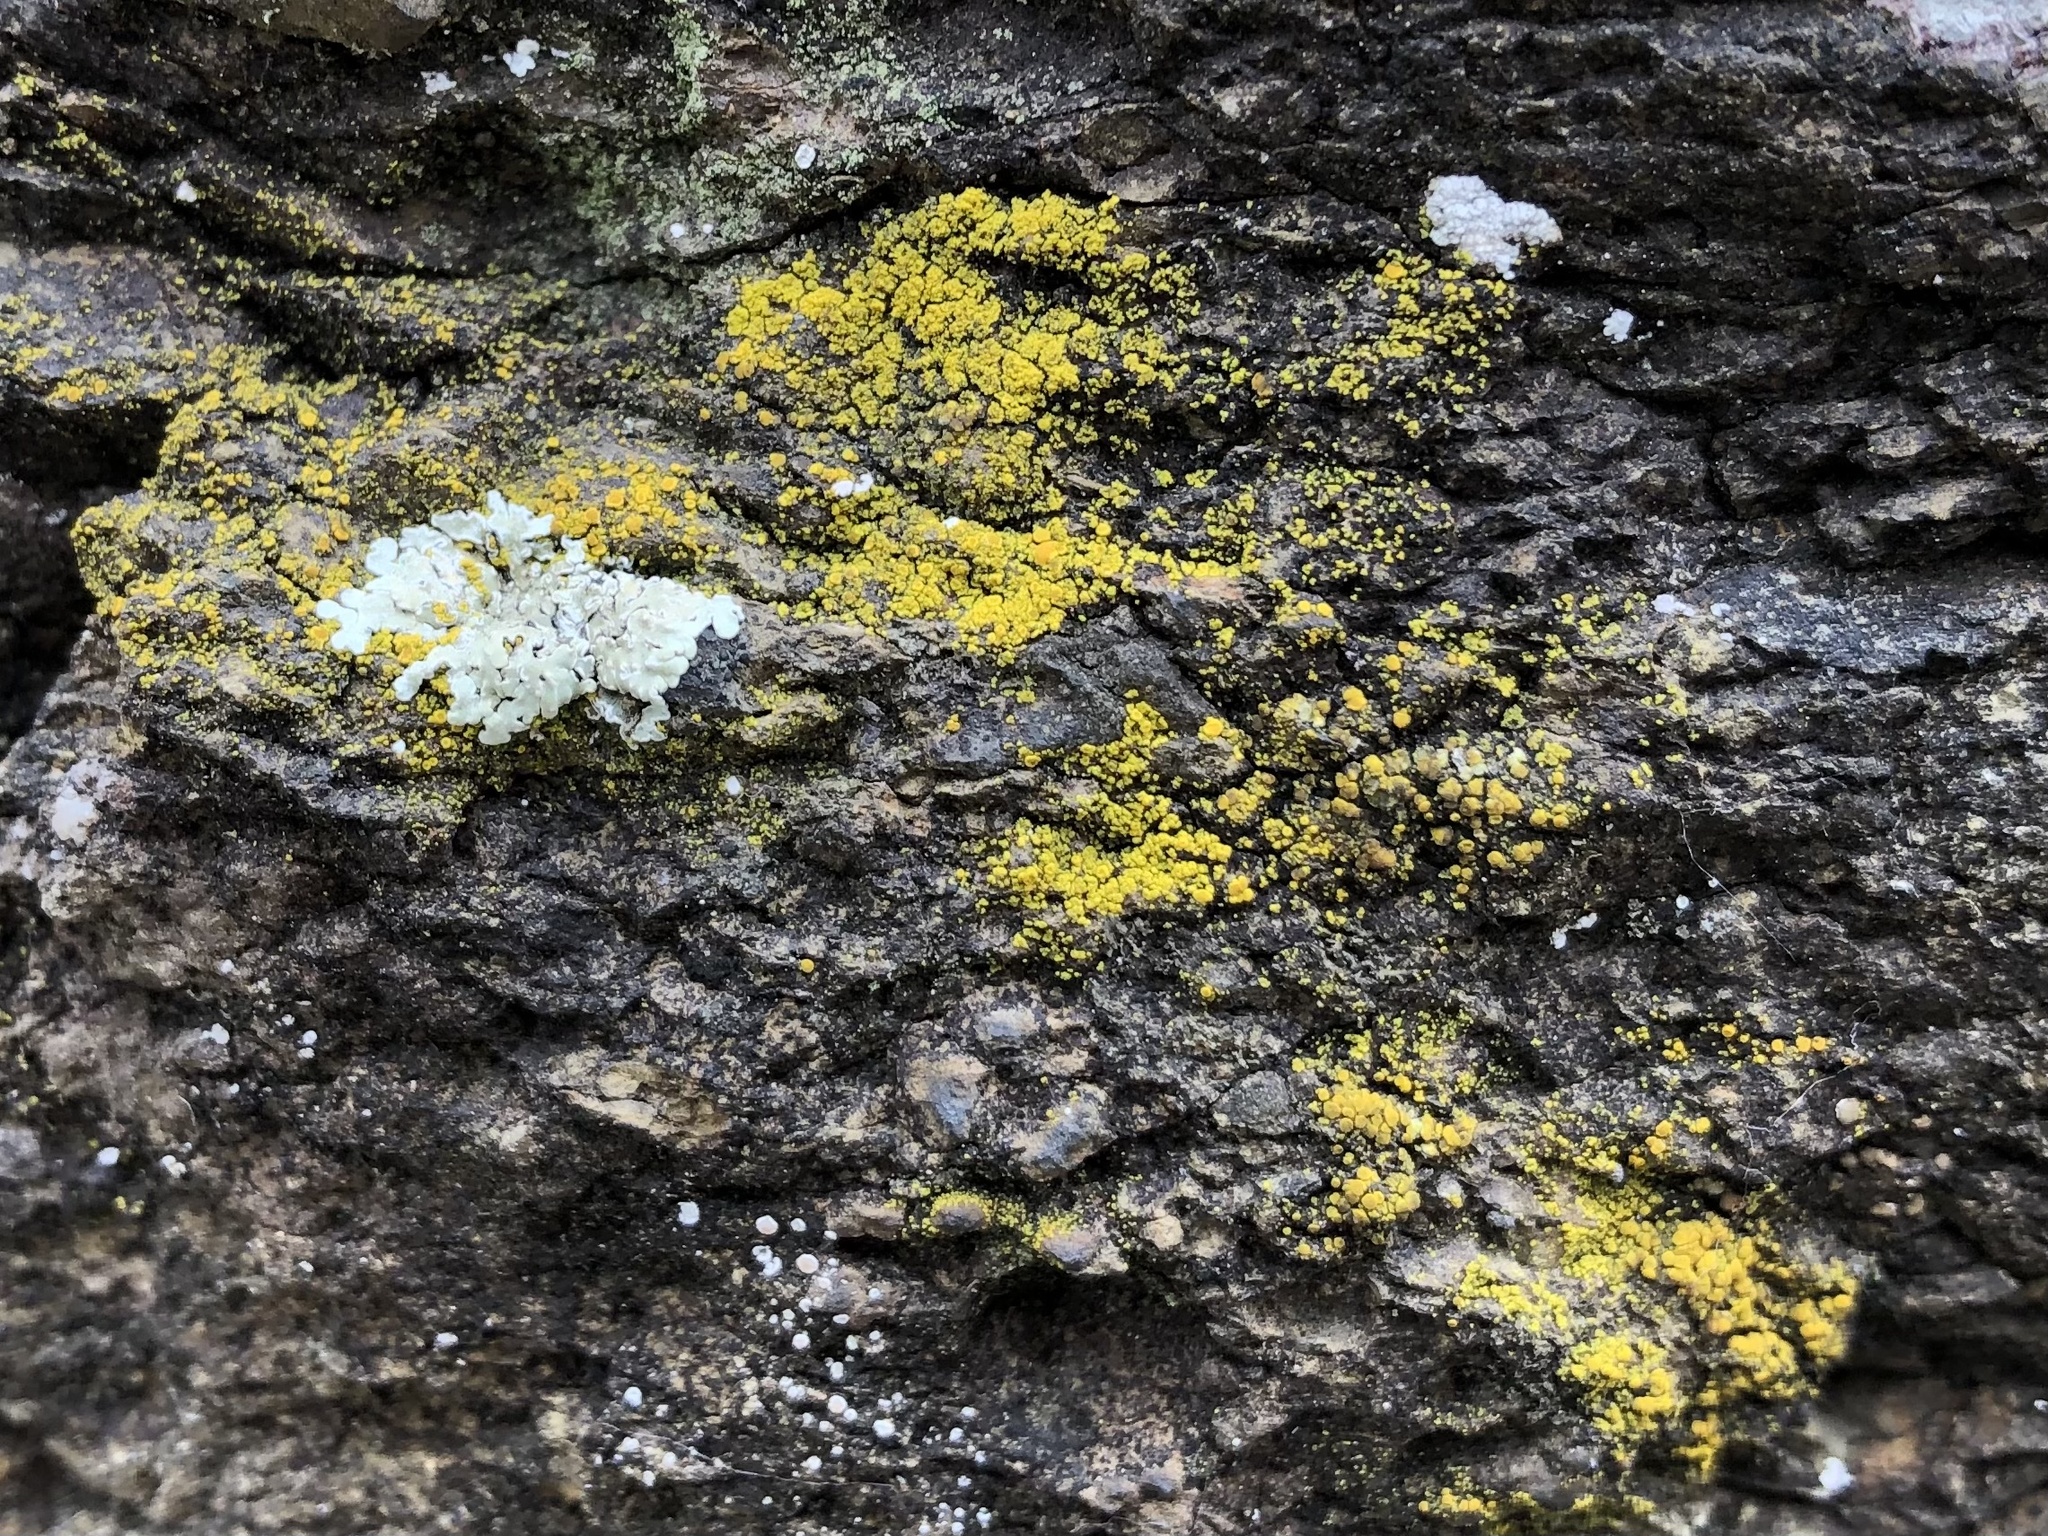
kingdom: Fungi
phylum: Ascomycota
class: Candelariomycetes
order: Candelariales
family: Candelariaceae
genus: Candelariella
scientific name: Candelariella vitellina
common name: Common goldspeck
